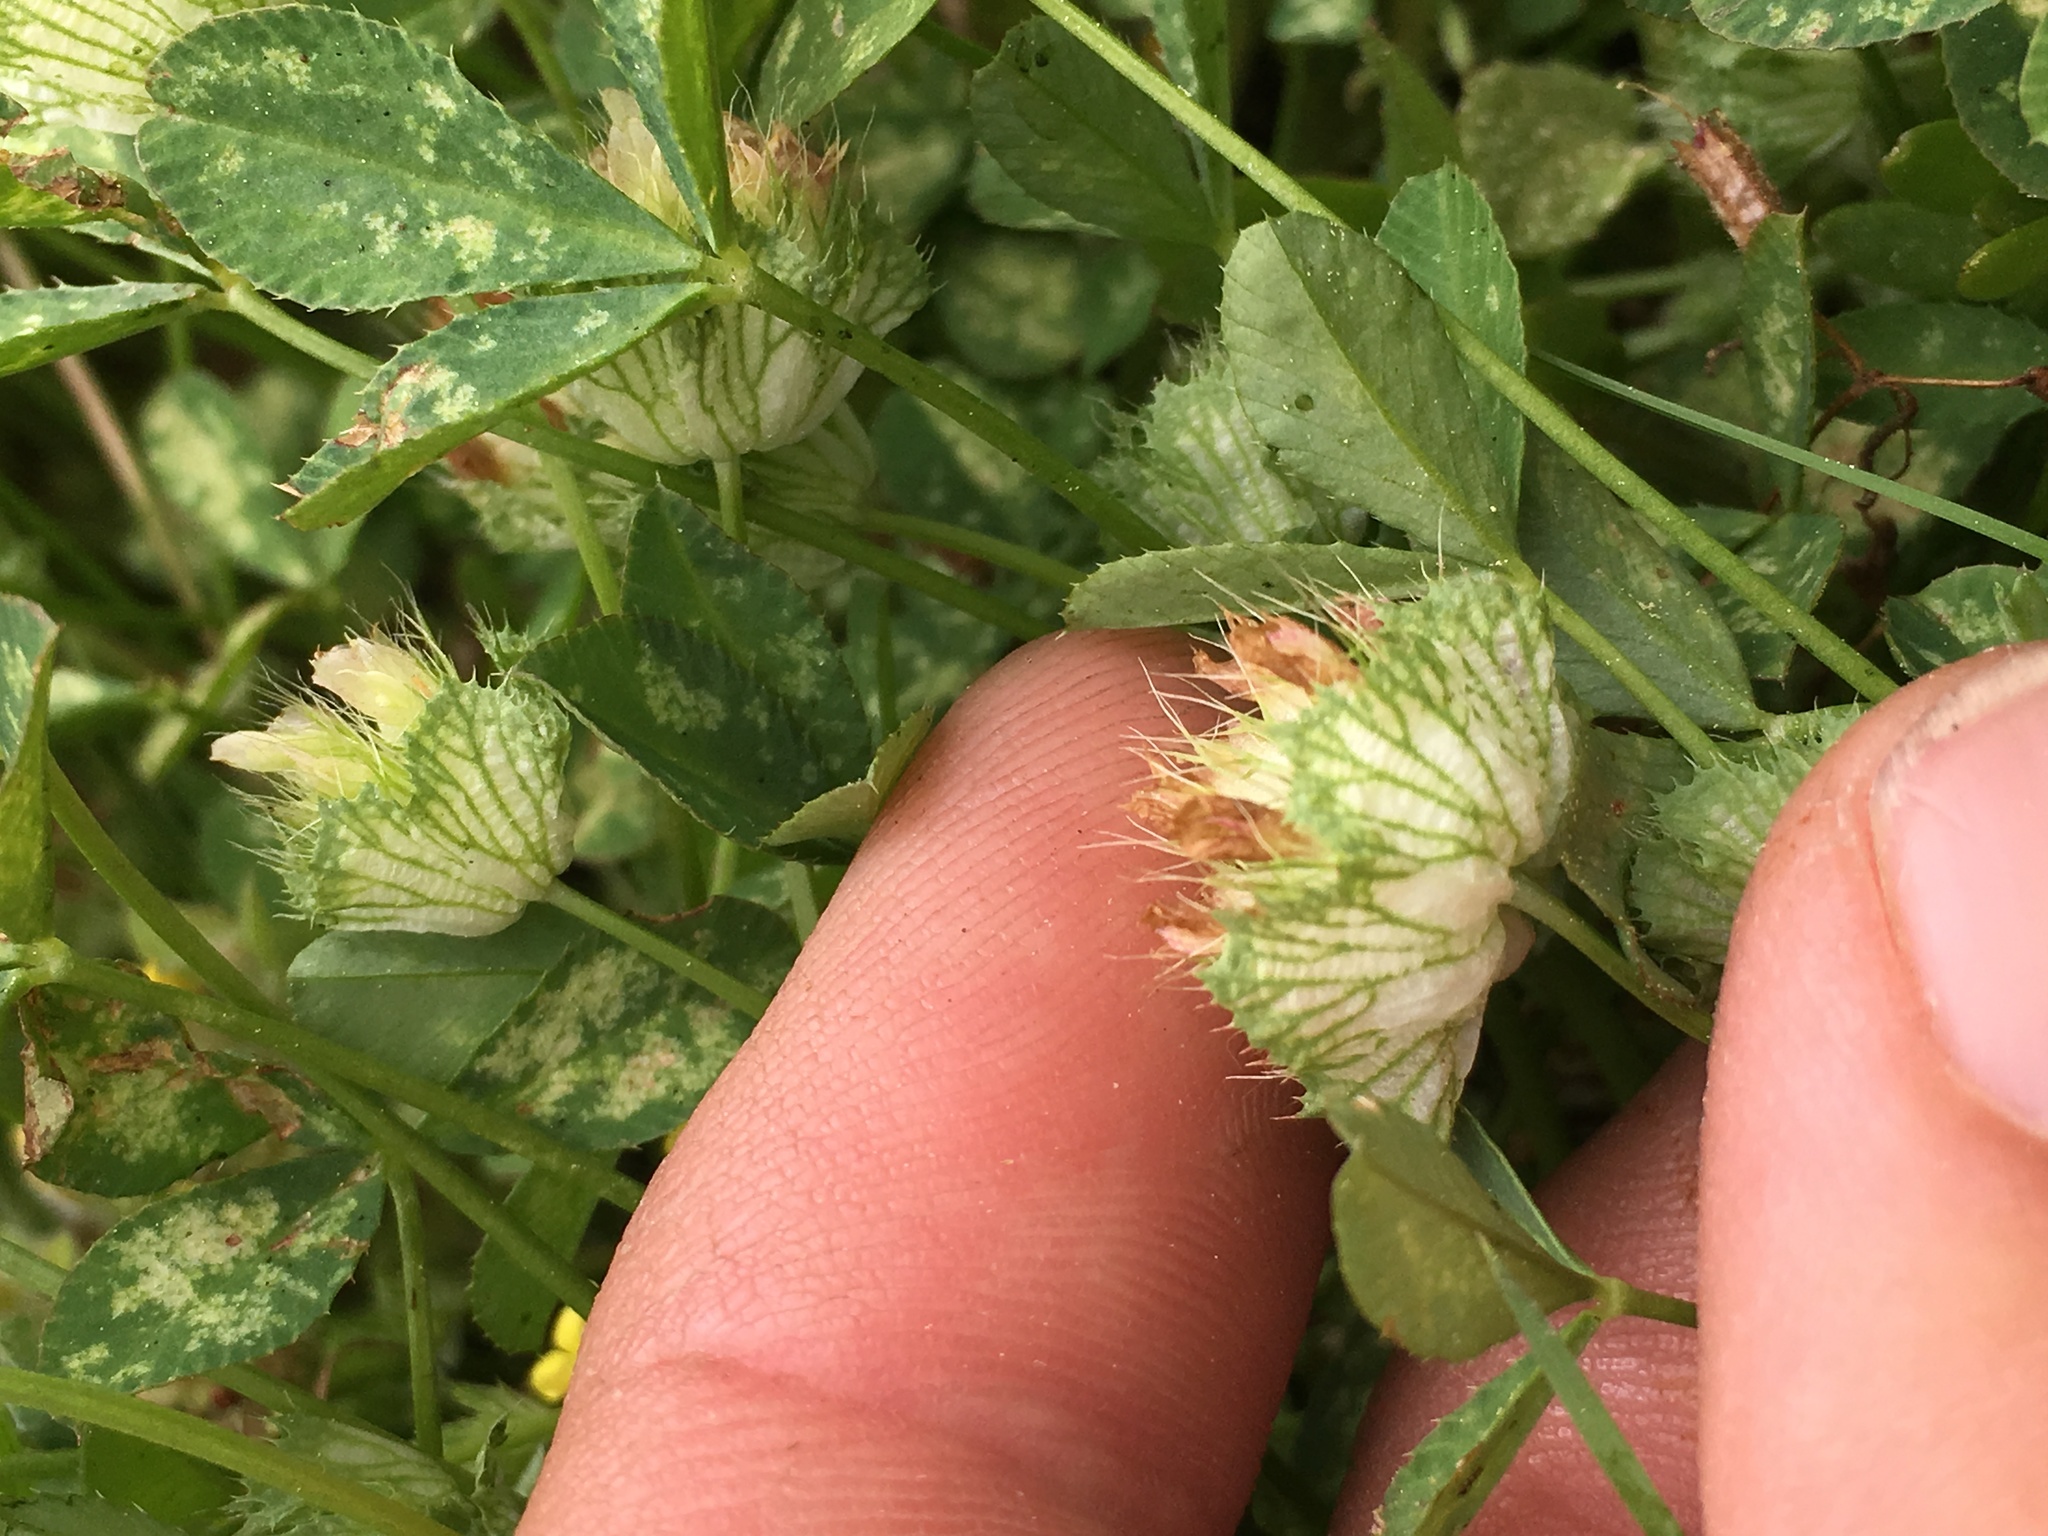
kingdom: Plantae
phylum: Tracheophyta
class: Magnoliopsida
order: Fabales
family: Fabaceae
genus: Trifolium
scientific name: Trifolium cyathiferum
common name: Bowl clover
